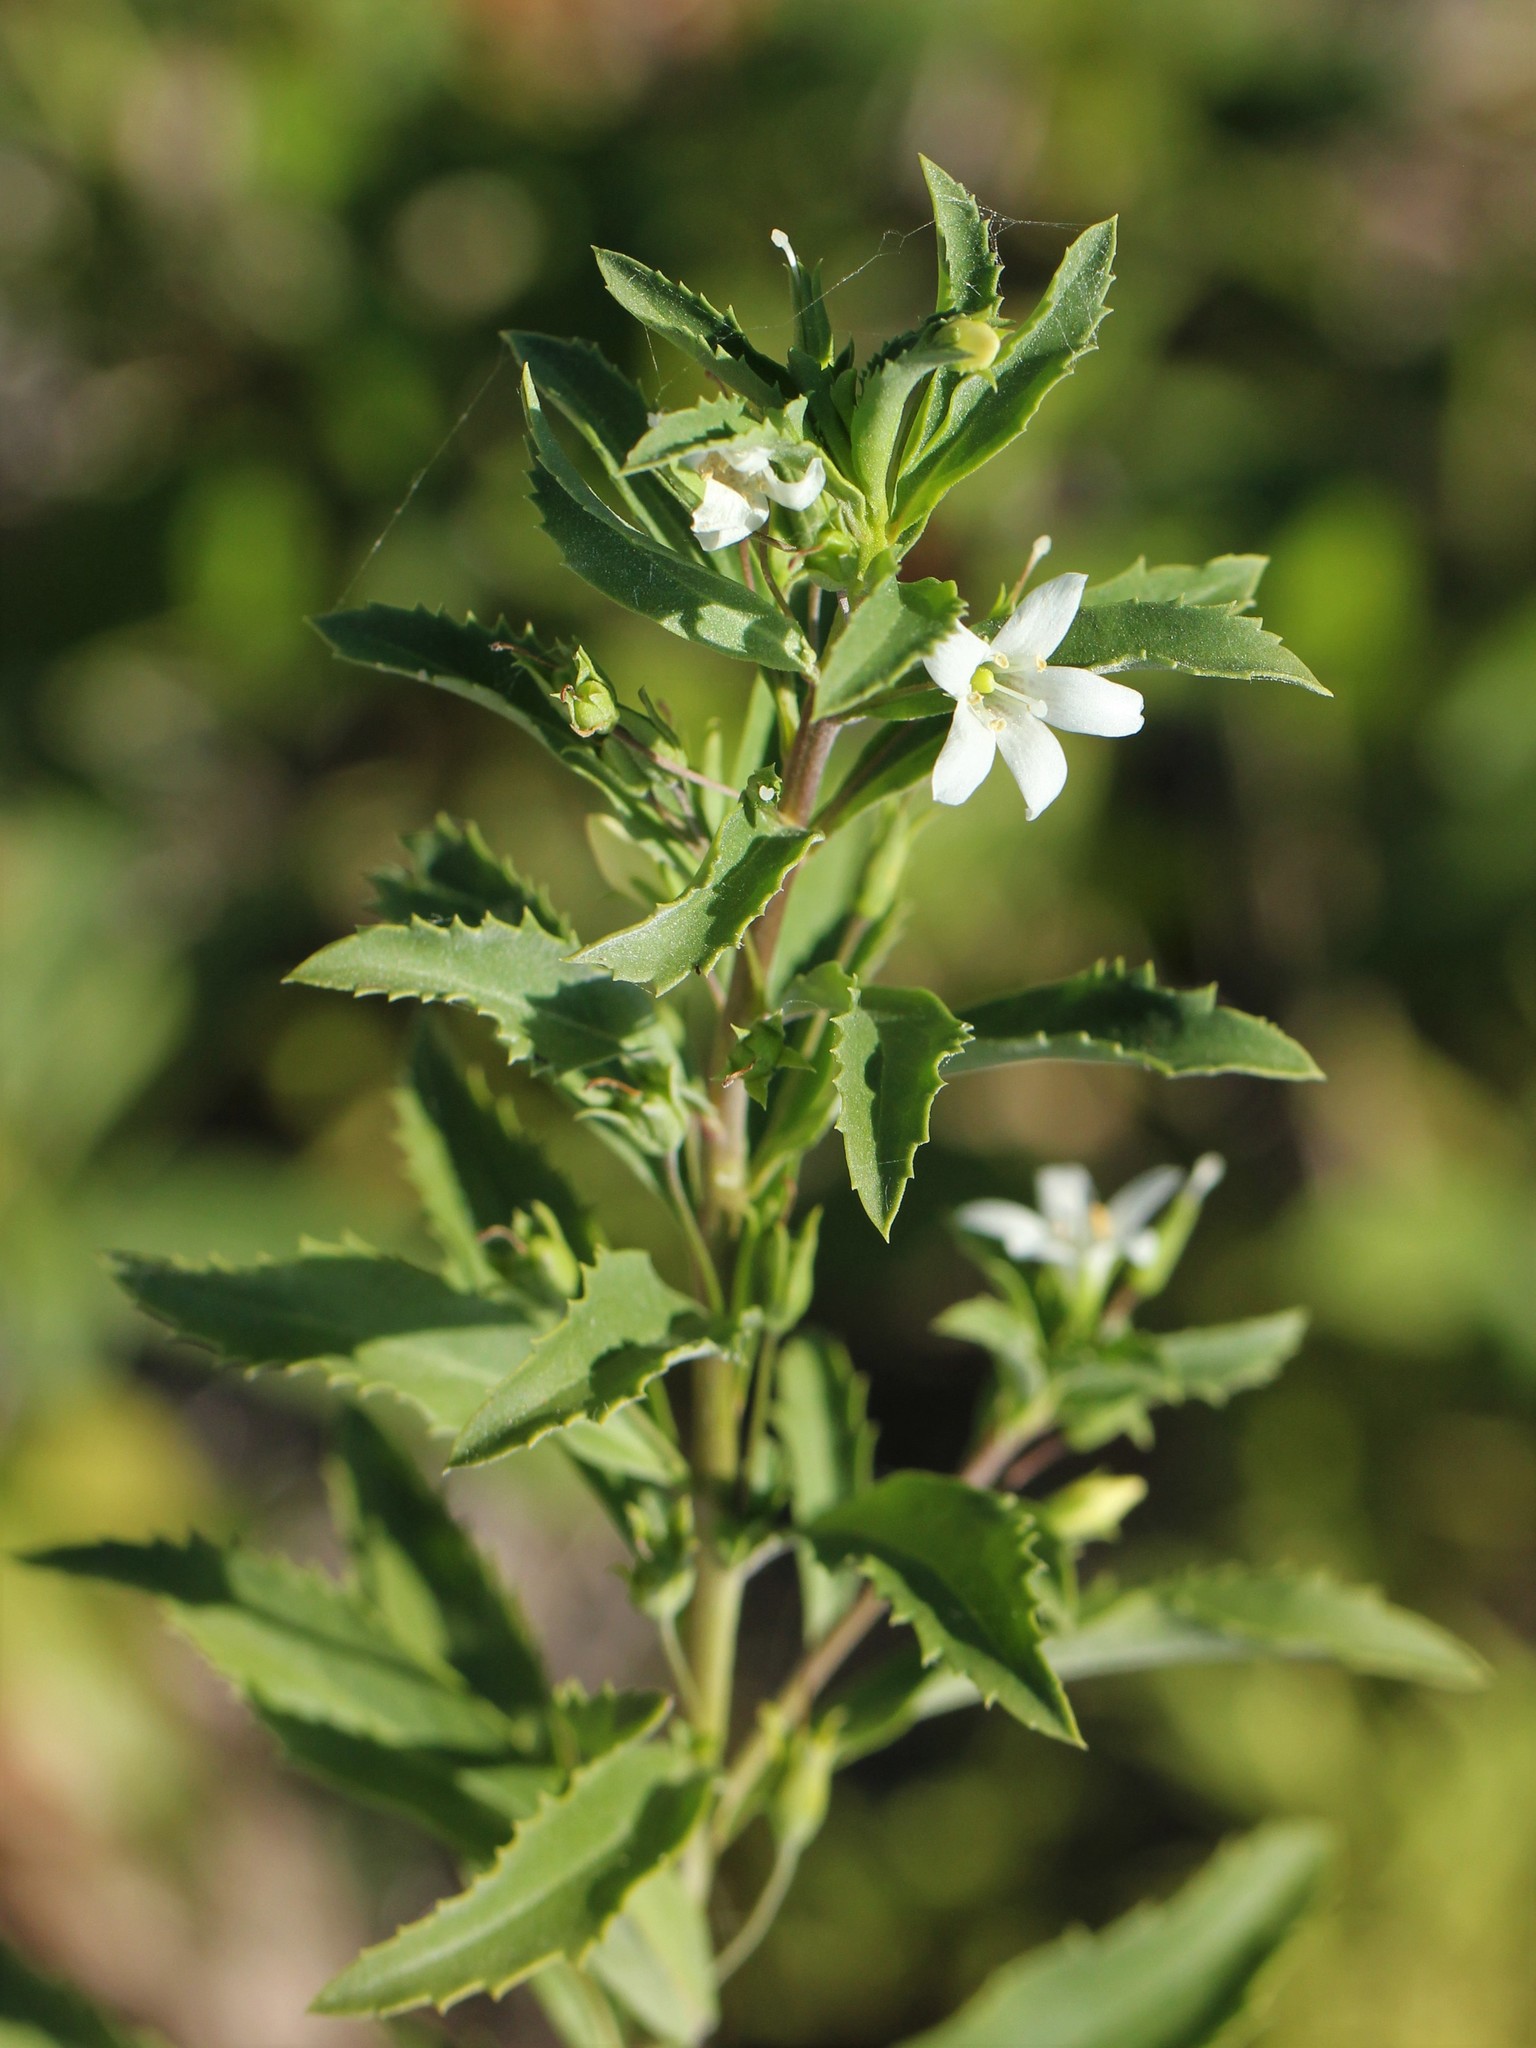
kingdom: Plantae
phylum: Tracheophyta
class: Magnoliopsida
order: Lamiales
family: Scrophulariaceae
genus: Capraria
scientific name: Capraria biflora
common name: Goatweed
